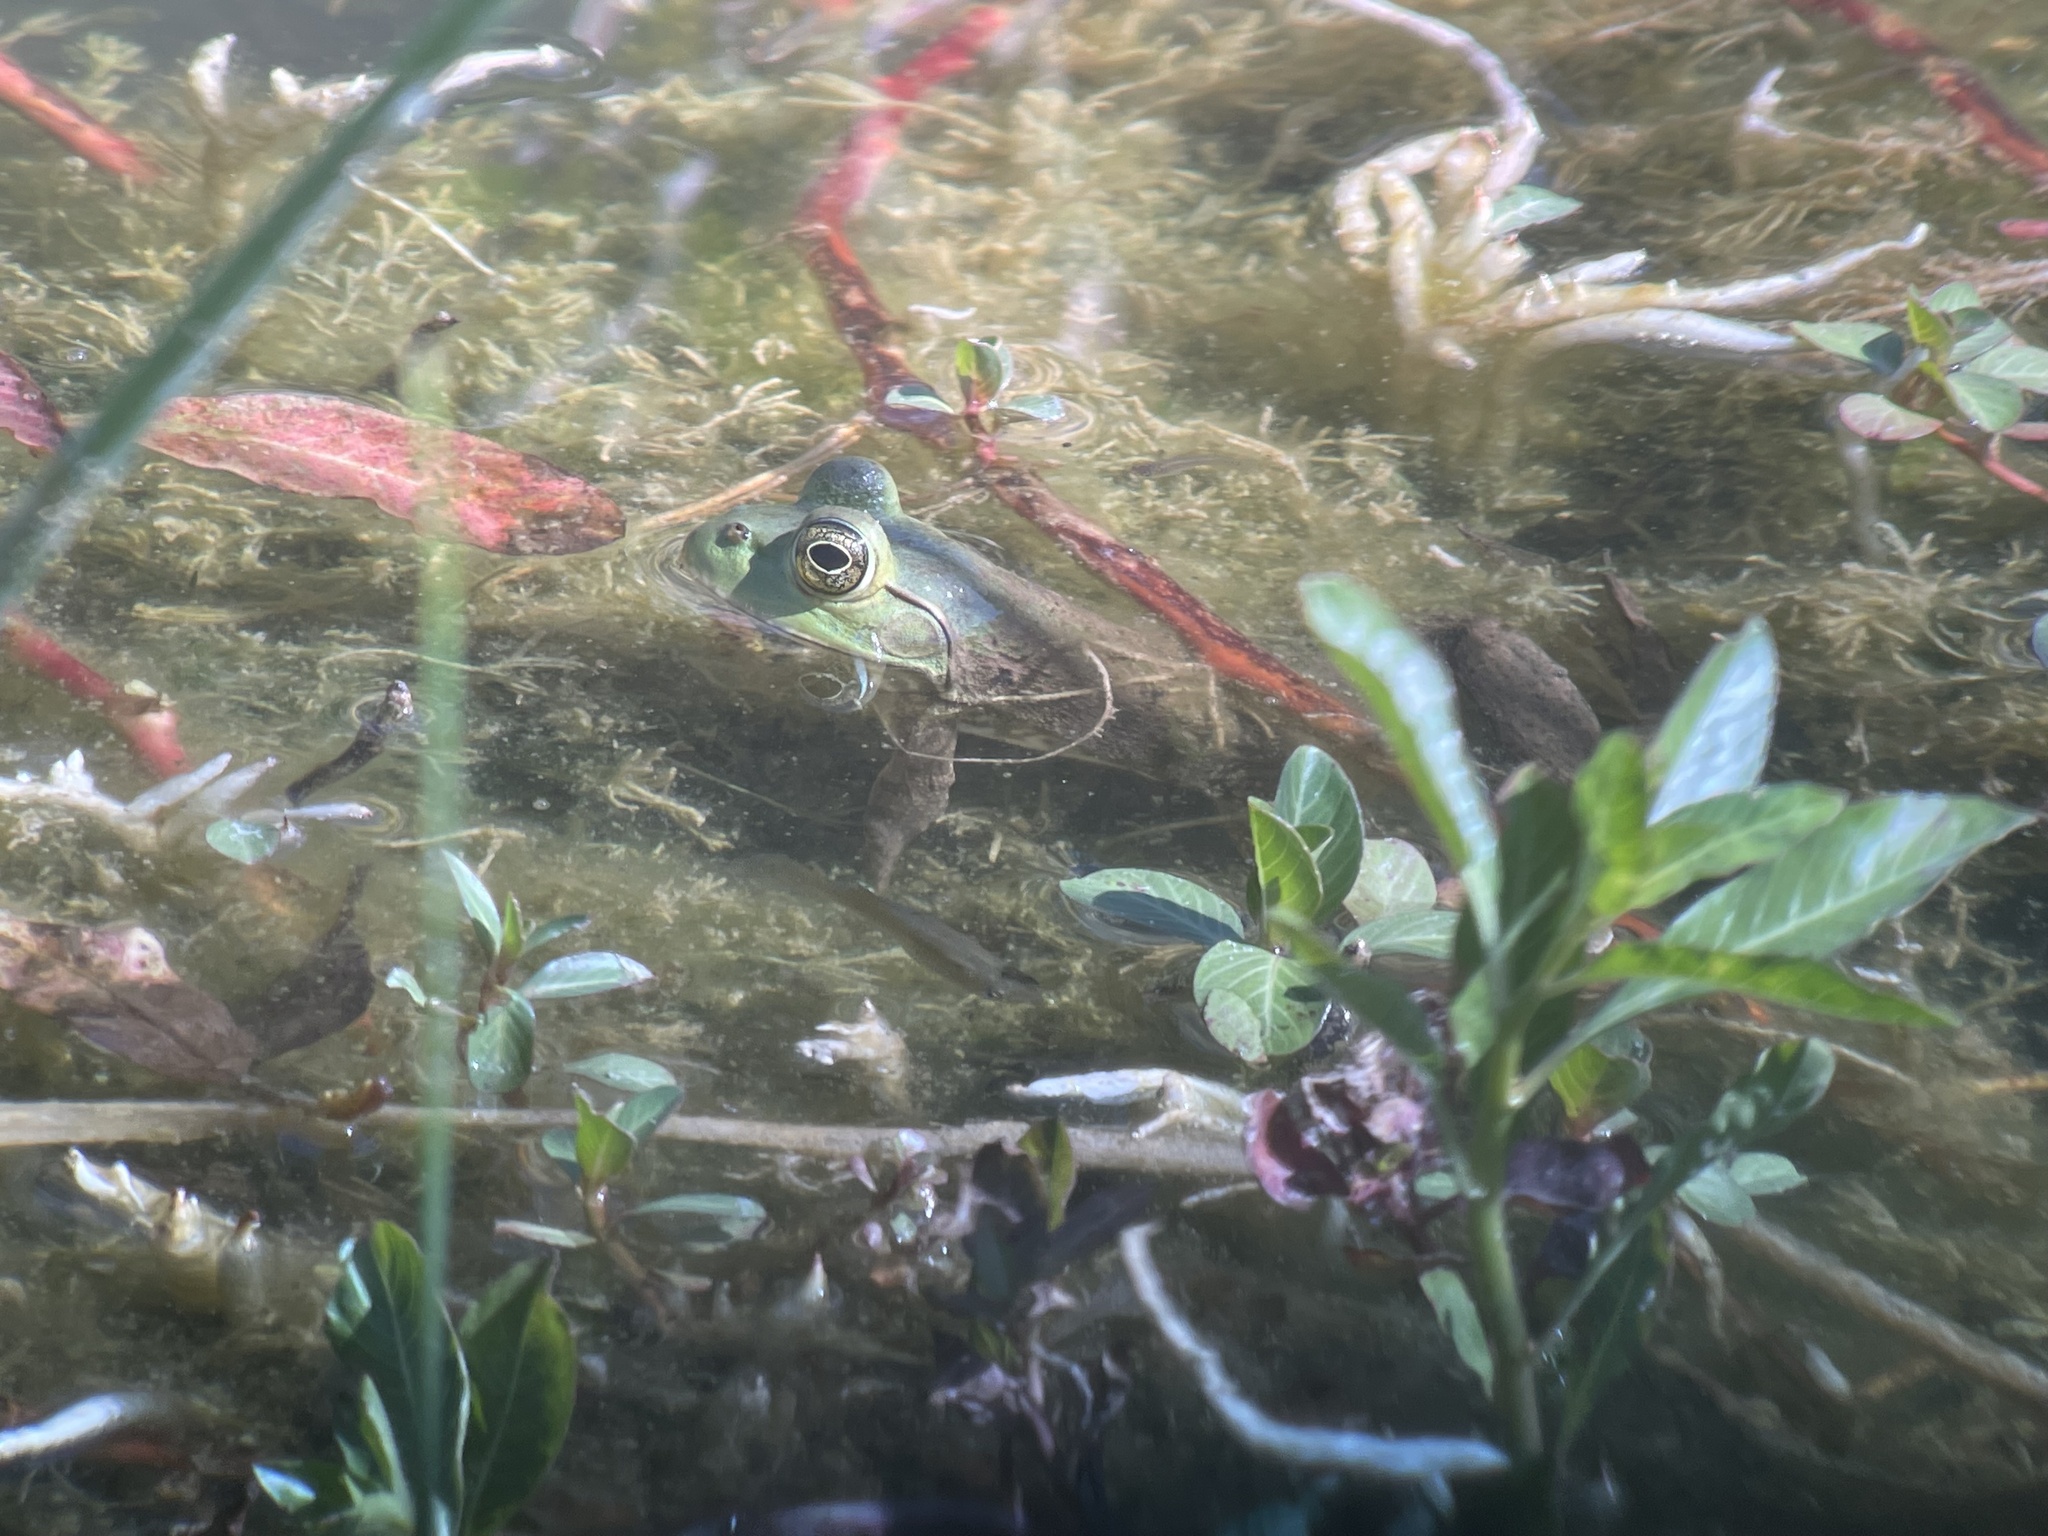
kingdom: Animalia
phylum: Chordata
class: Amphibia
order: Anura
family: Ranidae
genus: Lithobates
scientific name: Lithobates catesbeianus
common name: American bullfrog
